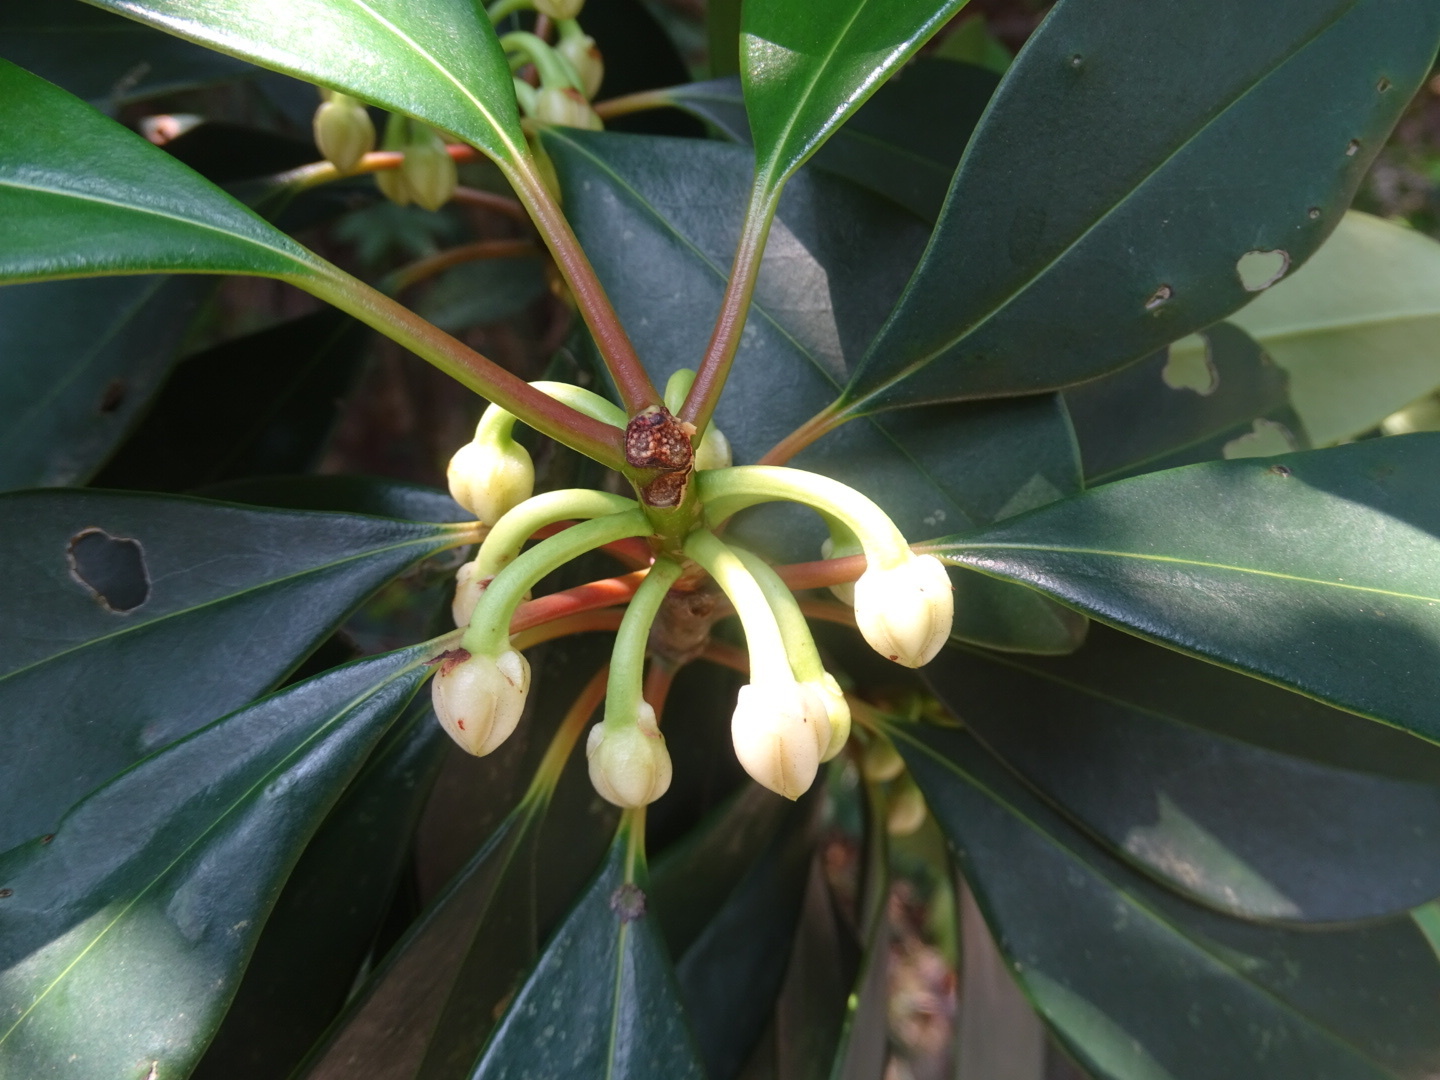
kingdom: Plantae
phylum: Tracheophyta
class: Magnoliopsida
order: Ericales
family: Pentaphylacaceae
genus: Ternstroemia
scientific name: Ternstroemia gymnanthera
